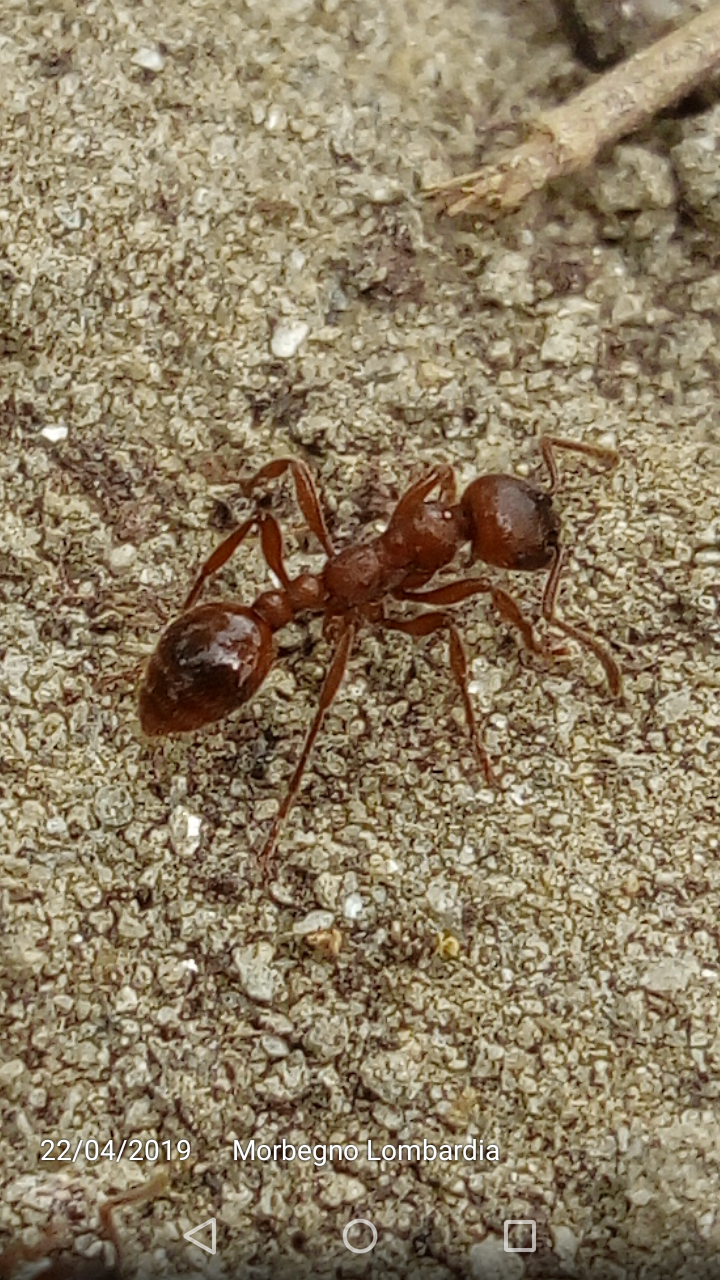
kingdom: Animalia
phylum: Arthropoda
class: Insecta
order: Hymenoptera
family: Formicidae
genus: Manica
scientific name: Manica rubida
